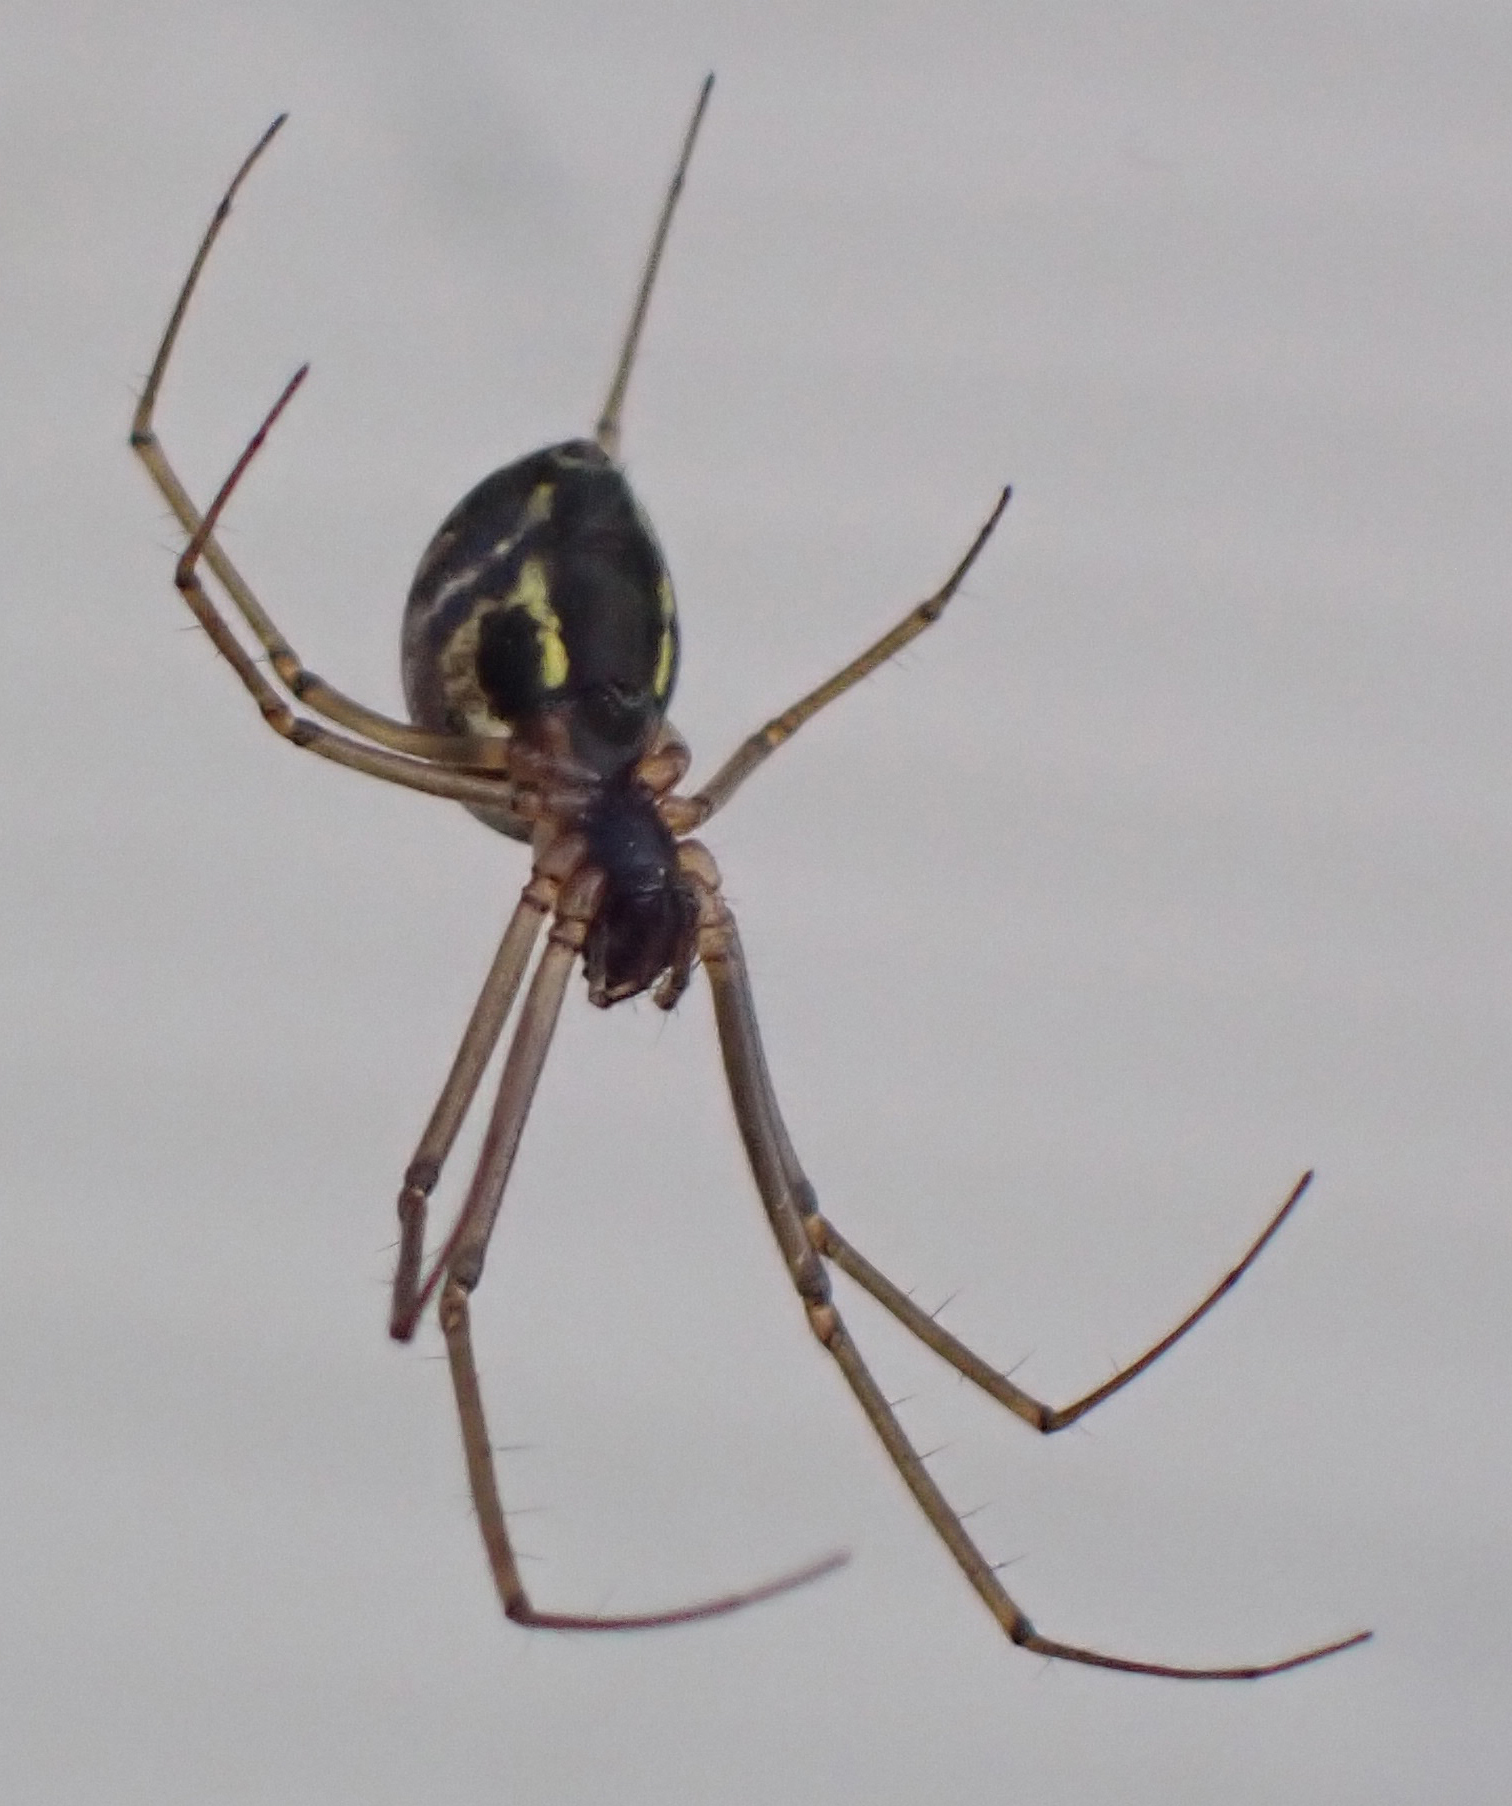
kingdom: Animalia
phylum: Arthropoda
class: Arachnida
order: Araneae
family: Linyphiidae
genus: Neriene
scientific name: Neriene radiata
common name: Filmy dome spider
